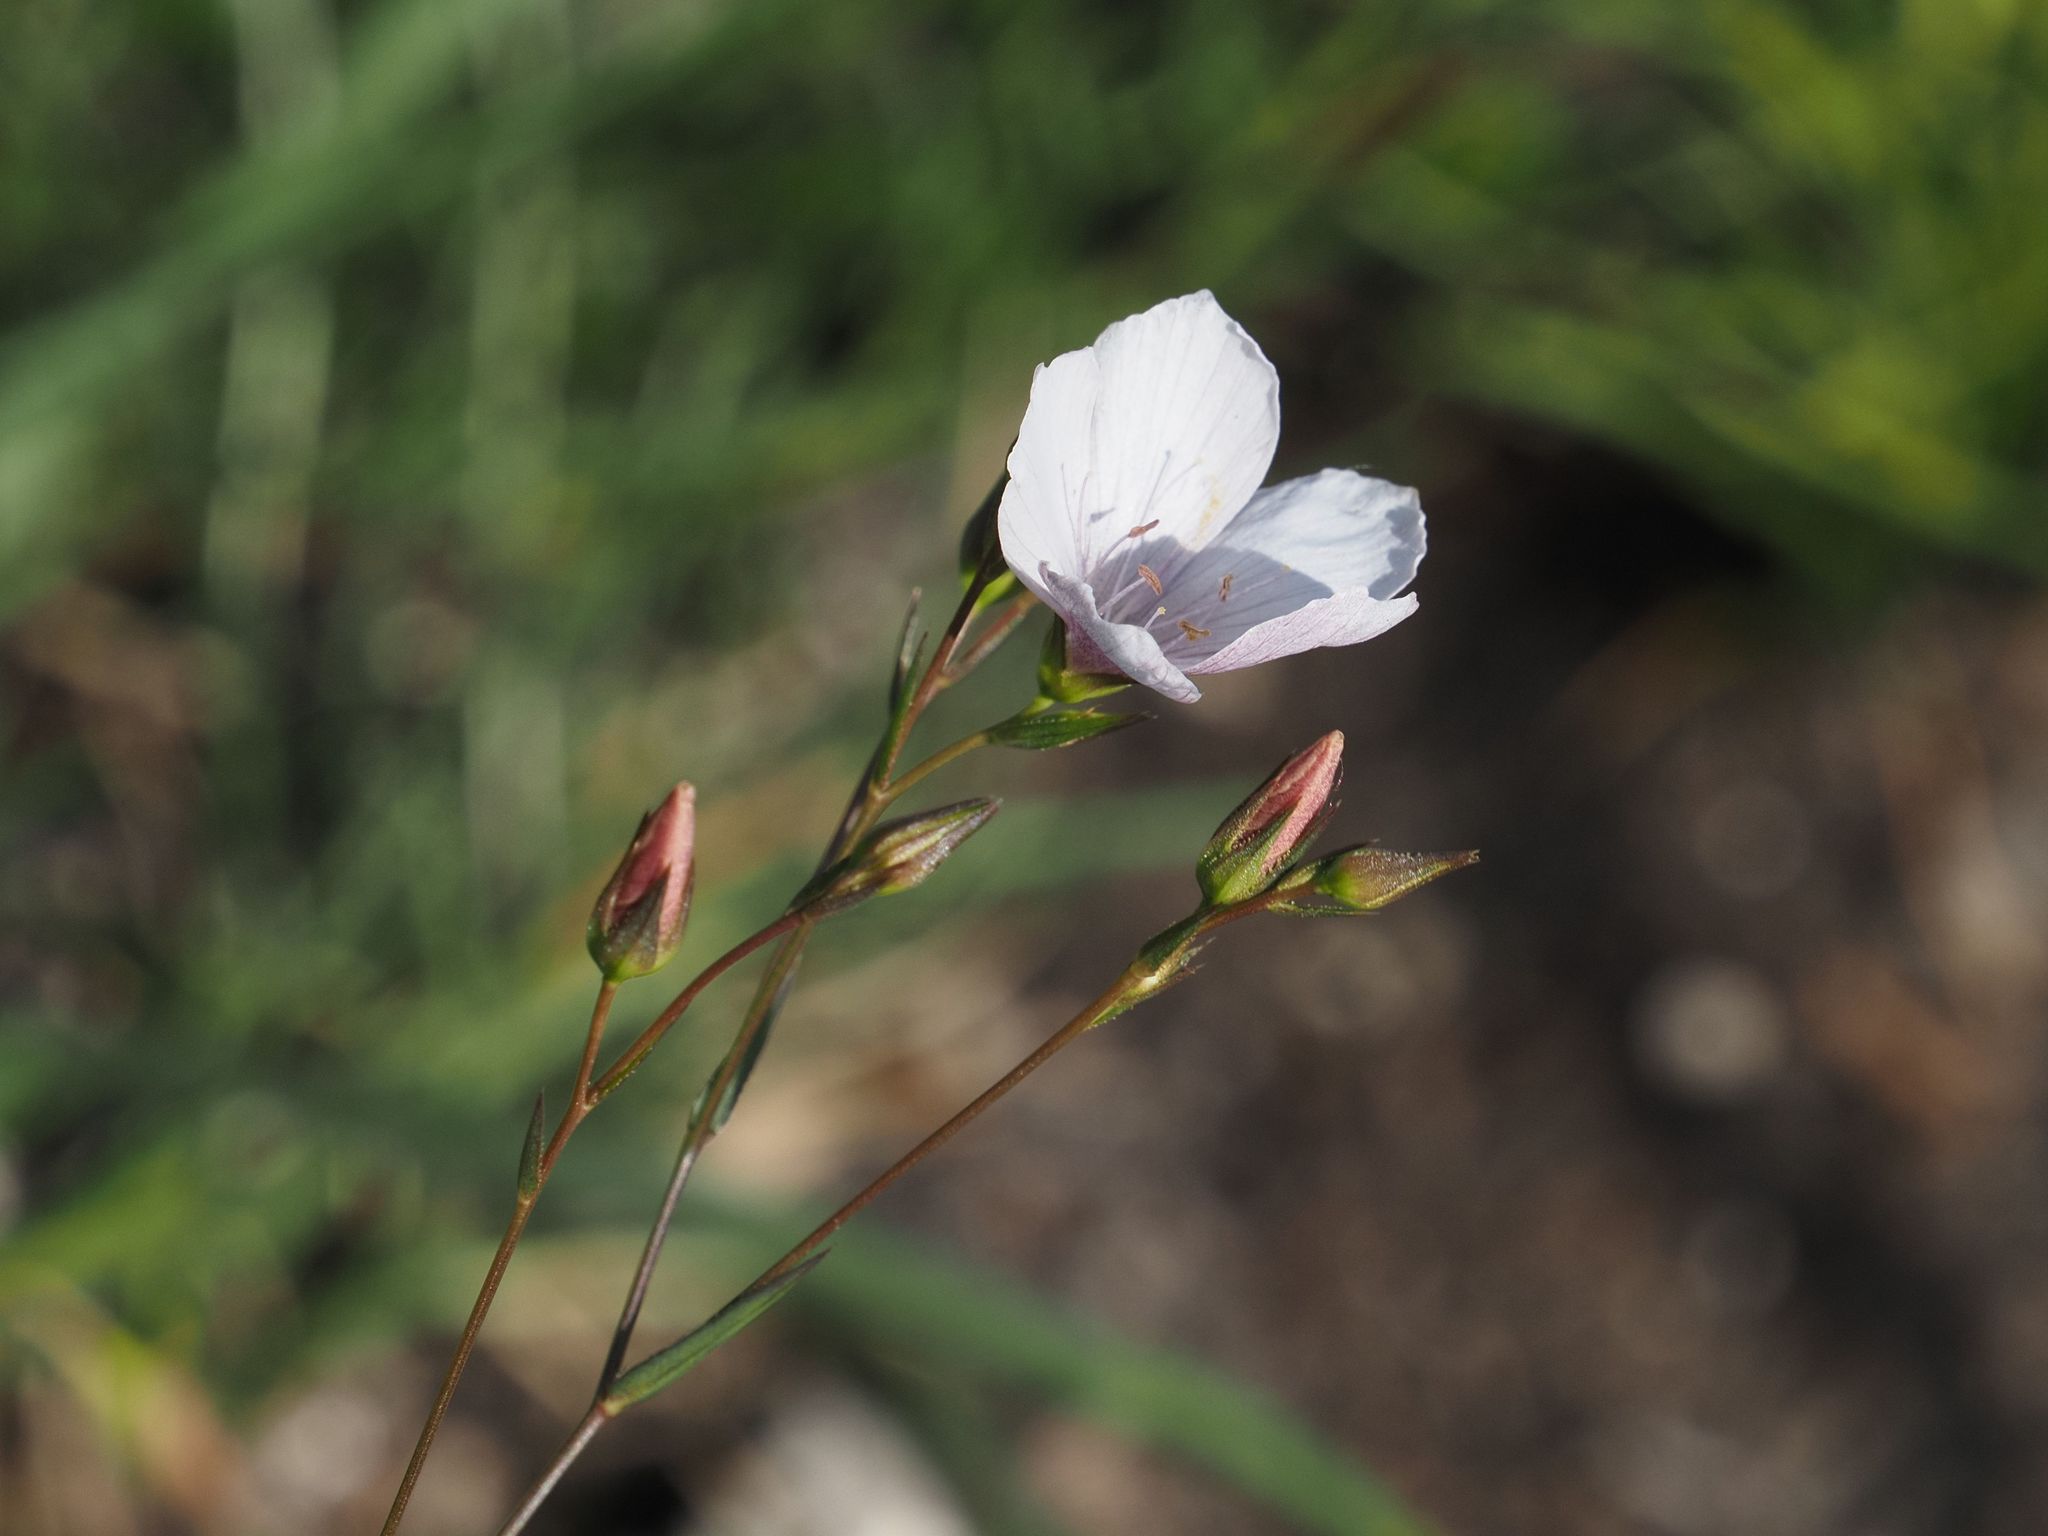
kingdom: Plantae
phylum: Tracheophyta
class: Magnoliopsida
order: Malpighiales
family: Linaceae
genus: Linum
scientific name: Linum tenuifolium
